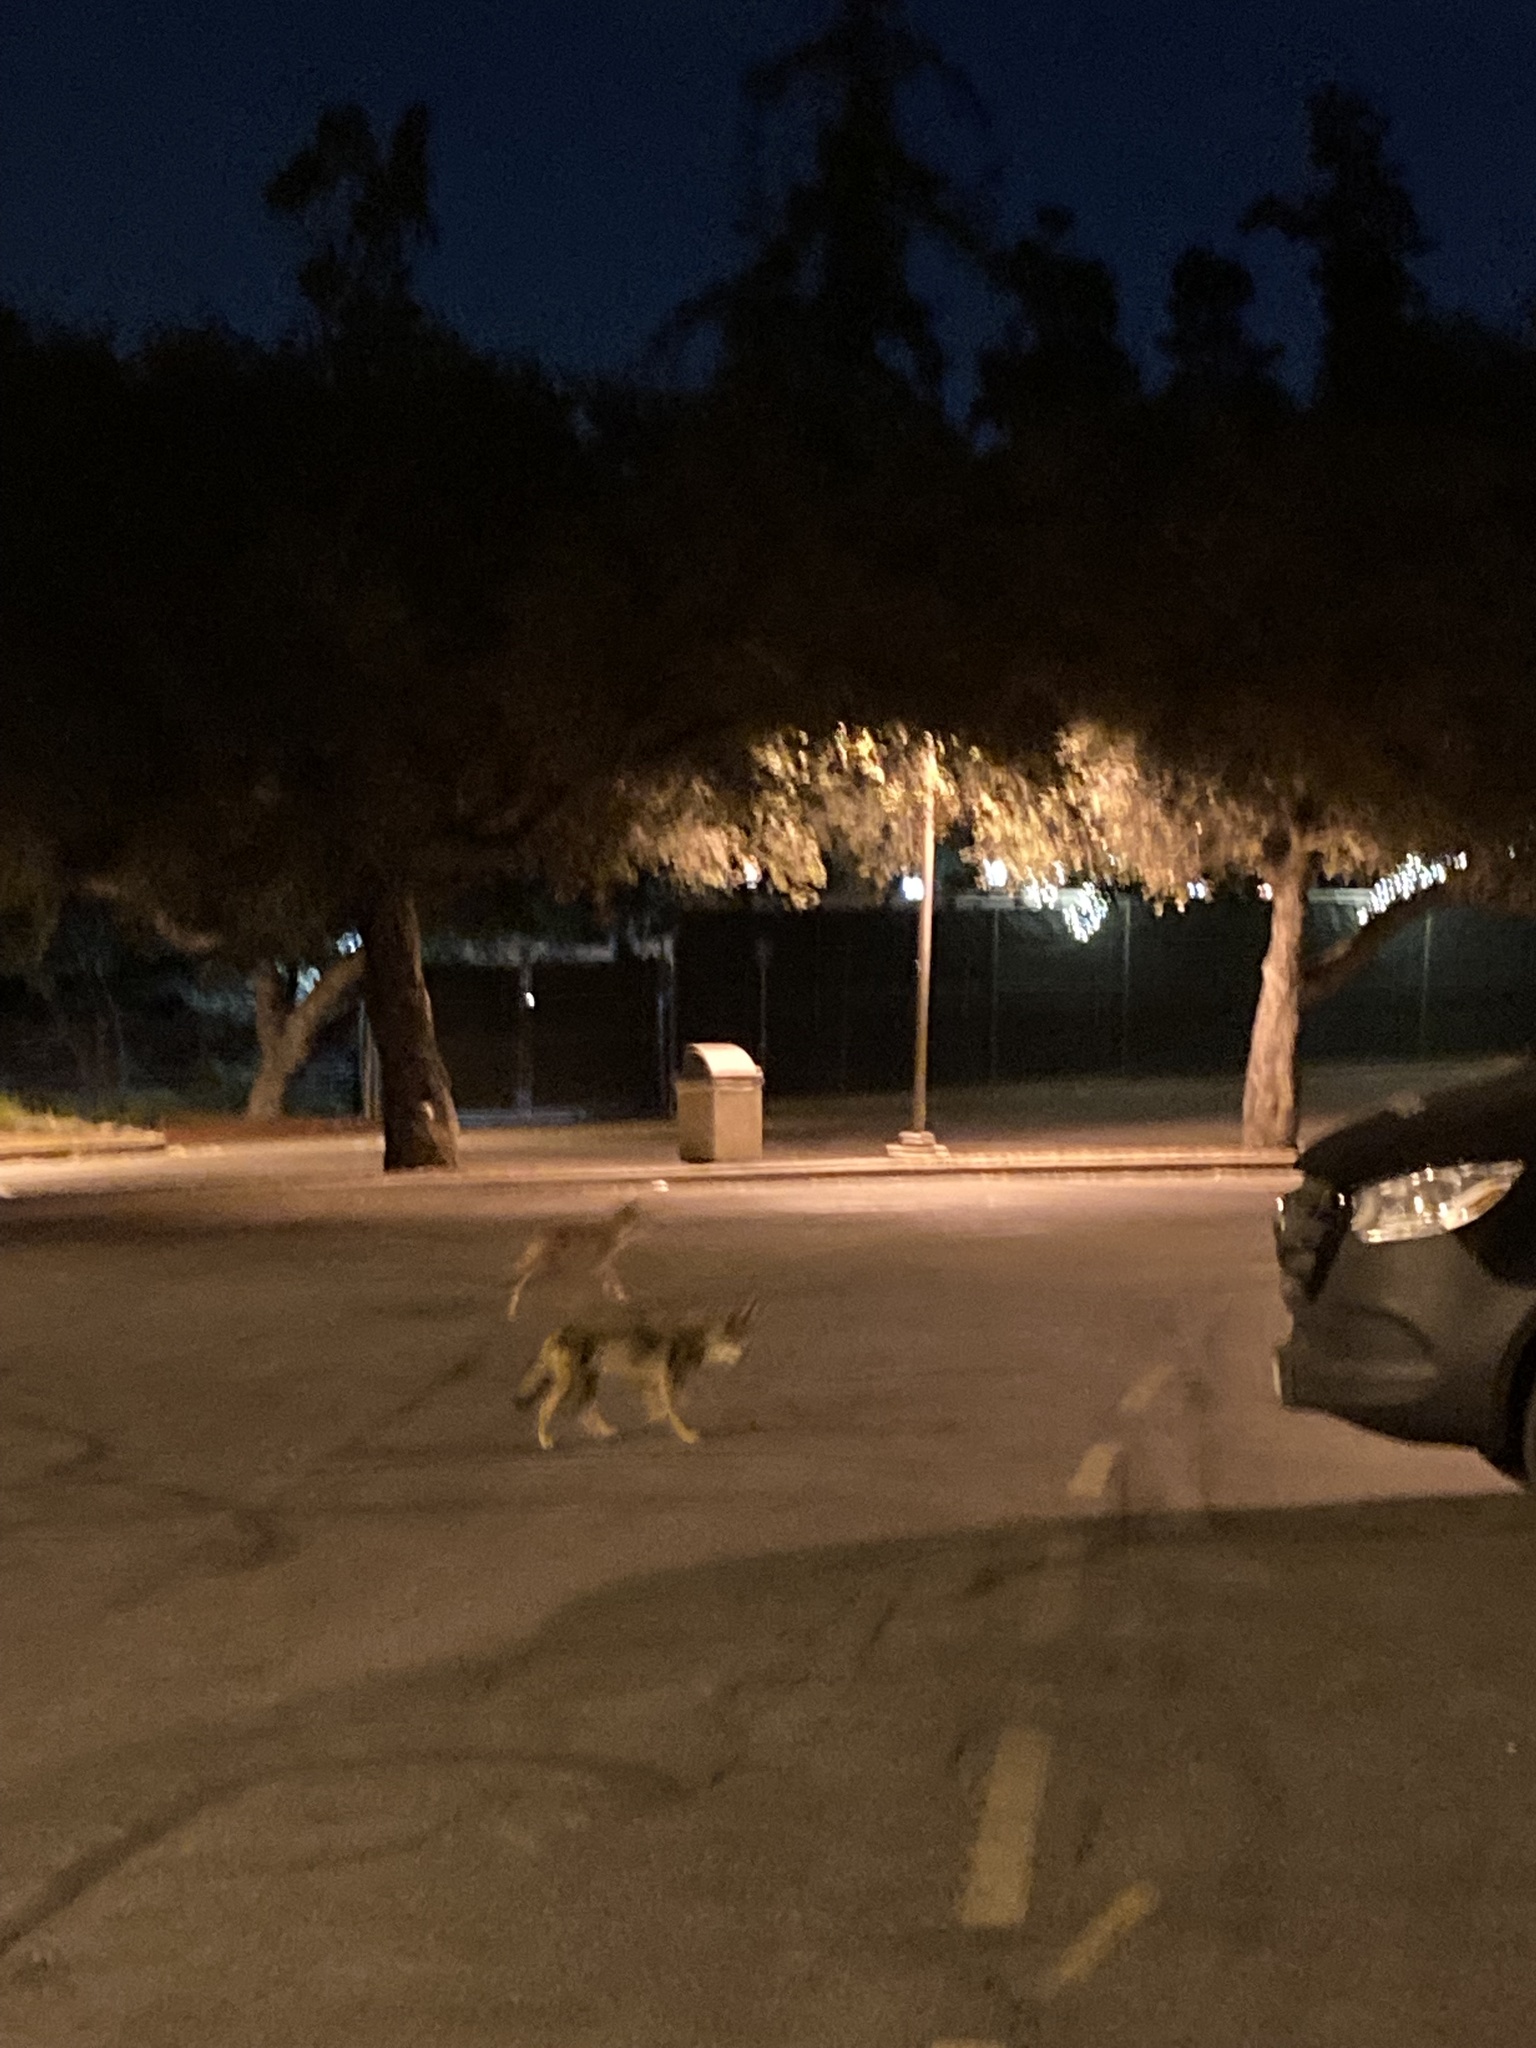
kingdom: Animalia
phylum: Chordata
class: Mammalia
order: Carnivora
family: Canidae
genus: Canis
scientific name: Canis latrans
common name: Coyote
